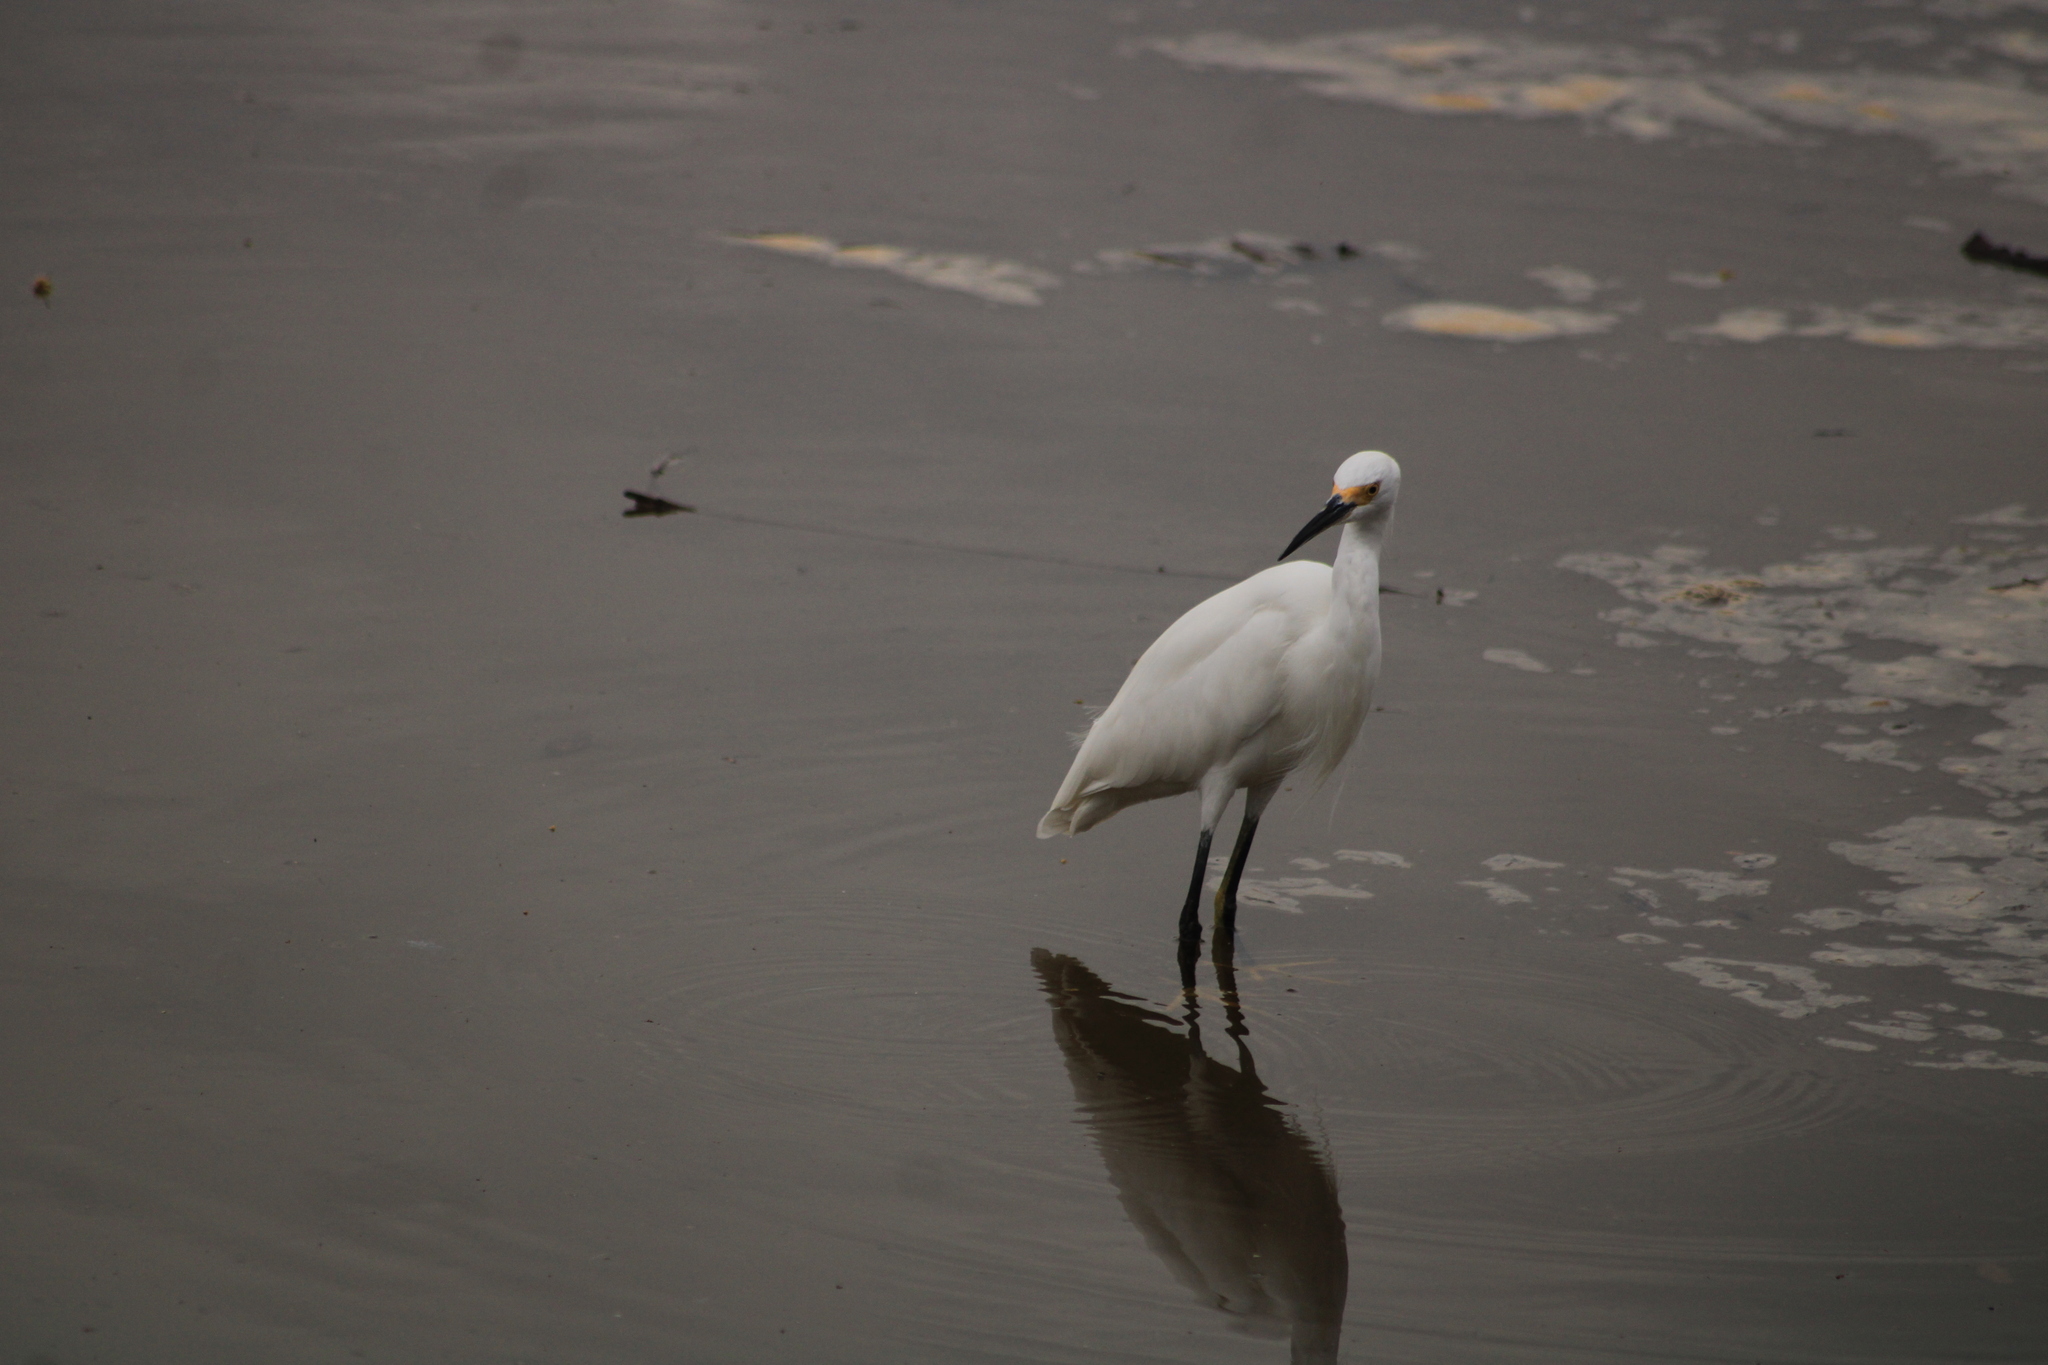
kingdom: Animalia
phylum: Chordata
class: Aves
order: Pelecaniformes
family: Ardeidae
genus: Egretta
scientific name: Egretta thula
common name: Snowy egret
